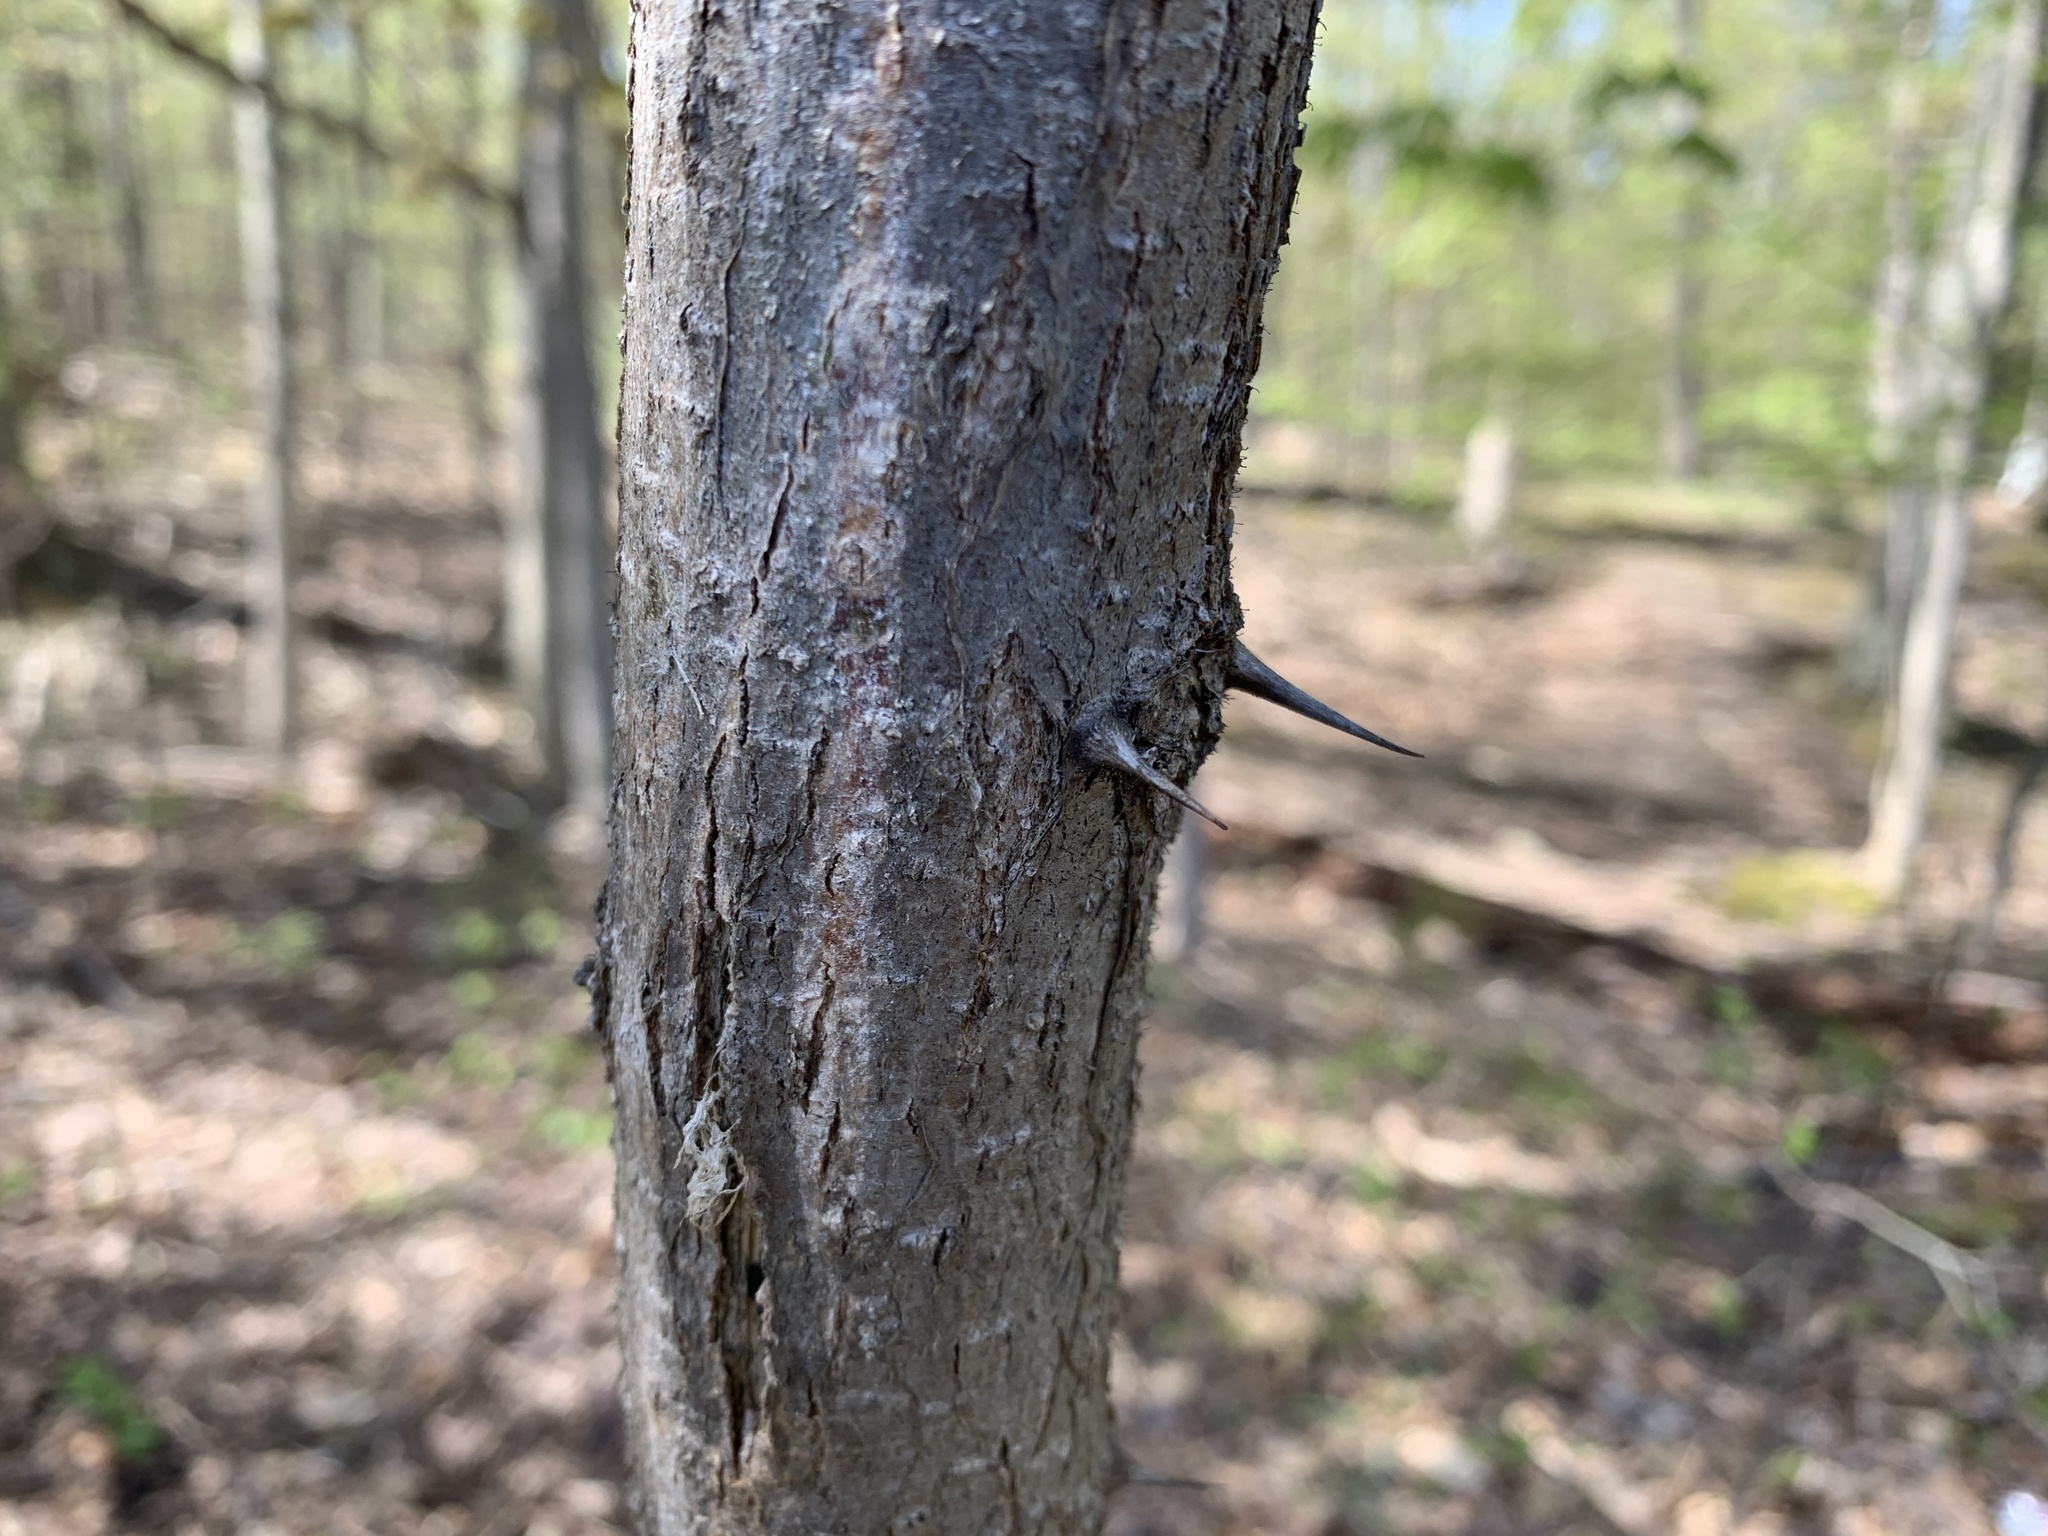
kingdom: Plantae
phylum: Tracheophyta
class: Magnoliopsida
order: Fabales
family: Fabaceae
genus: Robinia
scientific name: Robinia pseudoacacia
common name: Black locust
